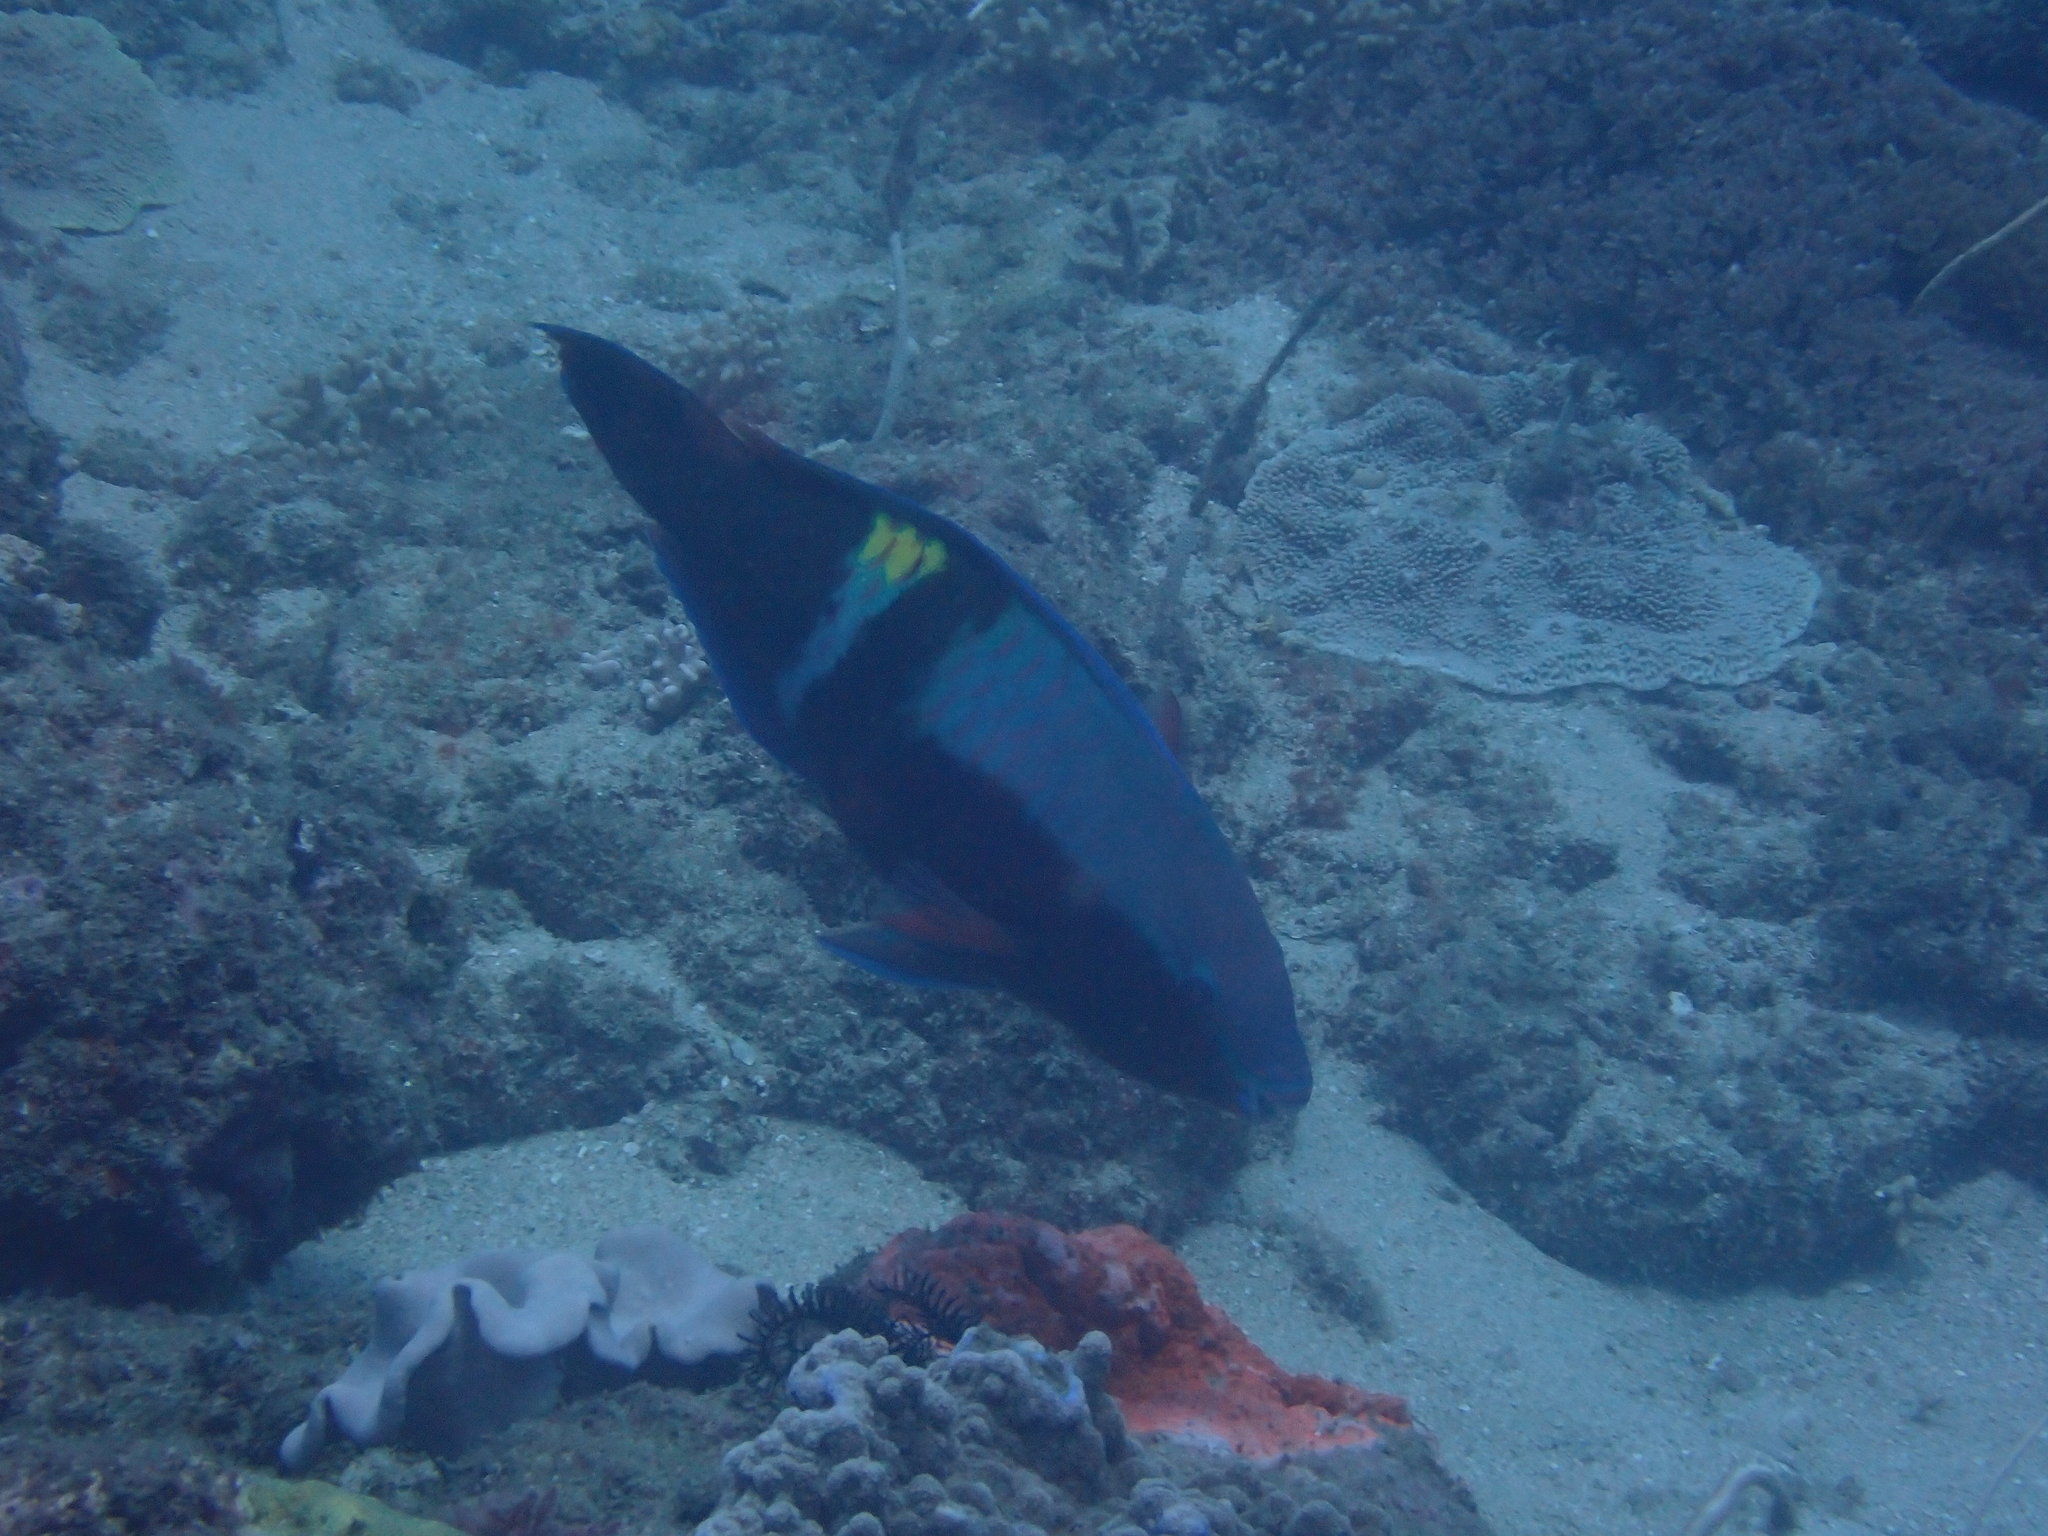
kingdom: Animalia
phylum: Chordata
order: Perciformes
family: Scaridae
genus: Scarus
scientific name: Scarus schlegeli
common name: Schlegel's parrotfish
